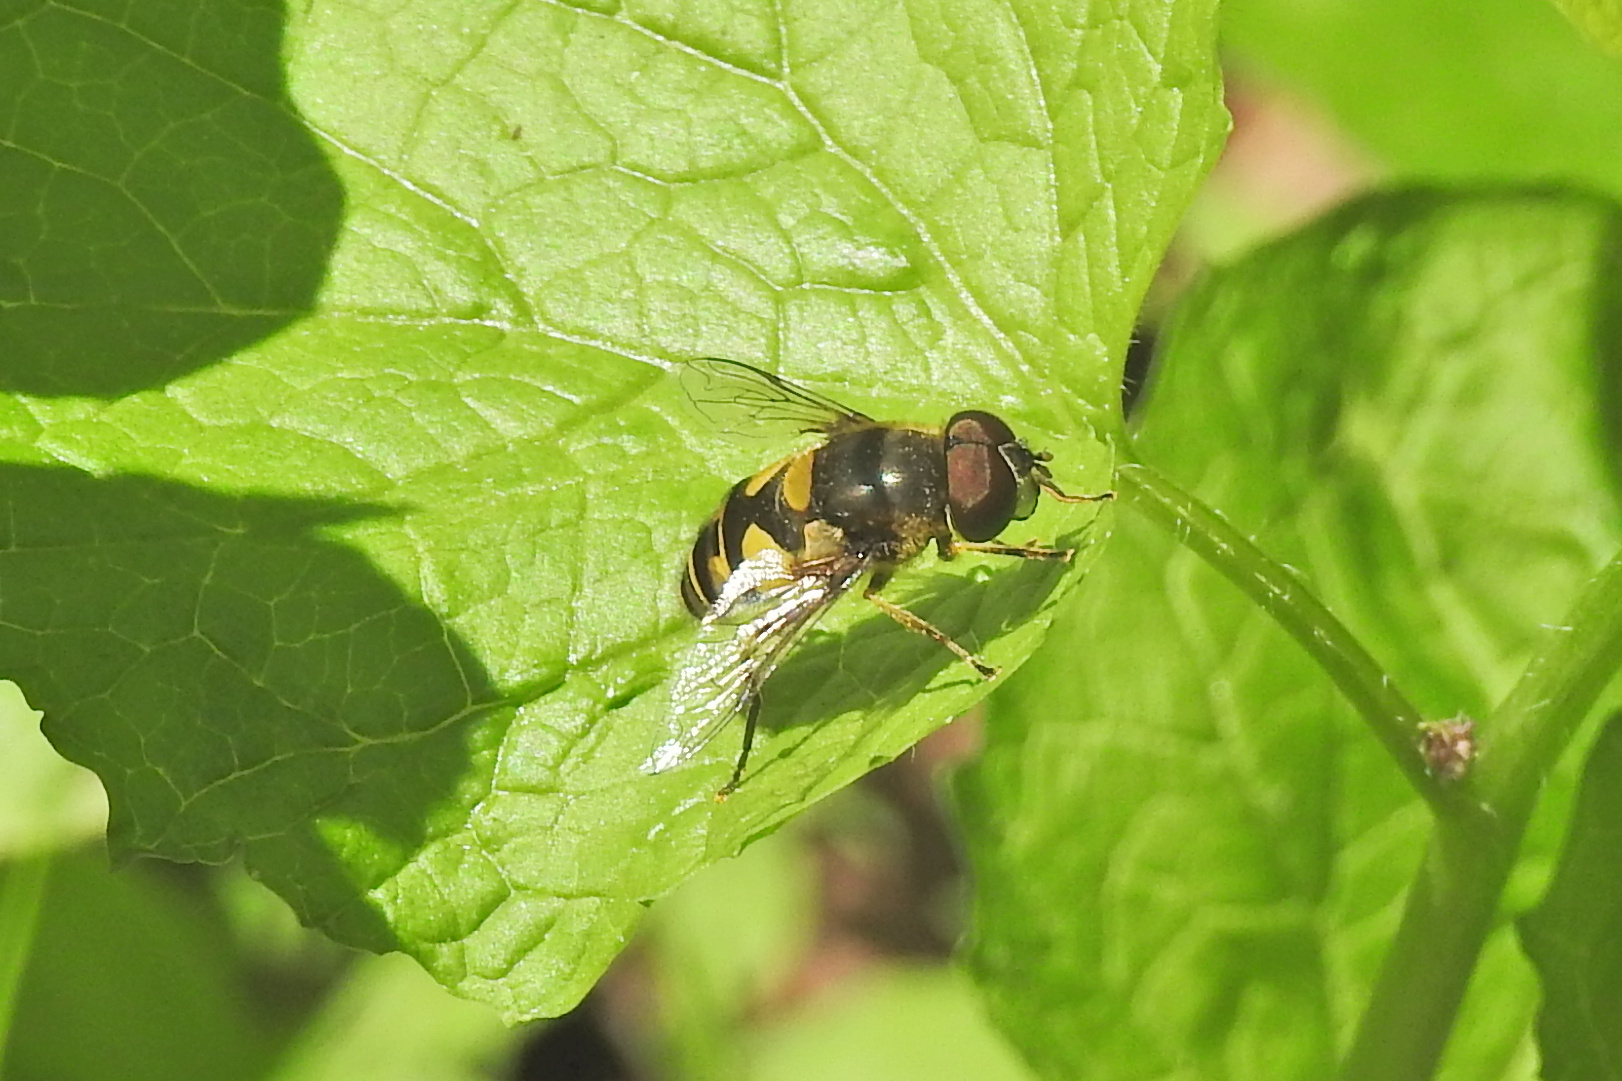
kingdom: Animalia
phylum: Arthropoda
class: Insecta
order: Diptera
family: Syrphidae
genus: Eristalis
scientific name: Eristalis transversa
